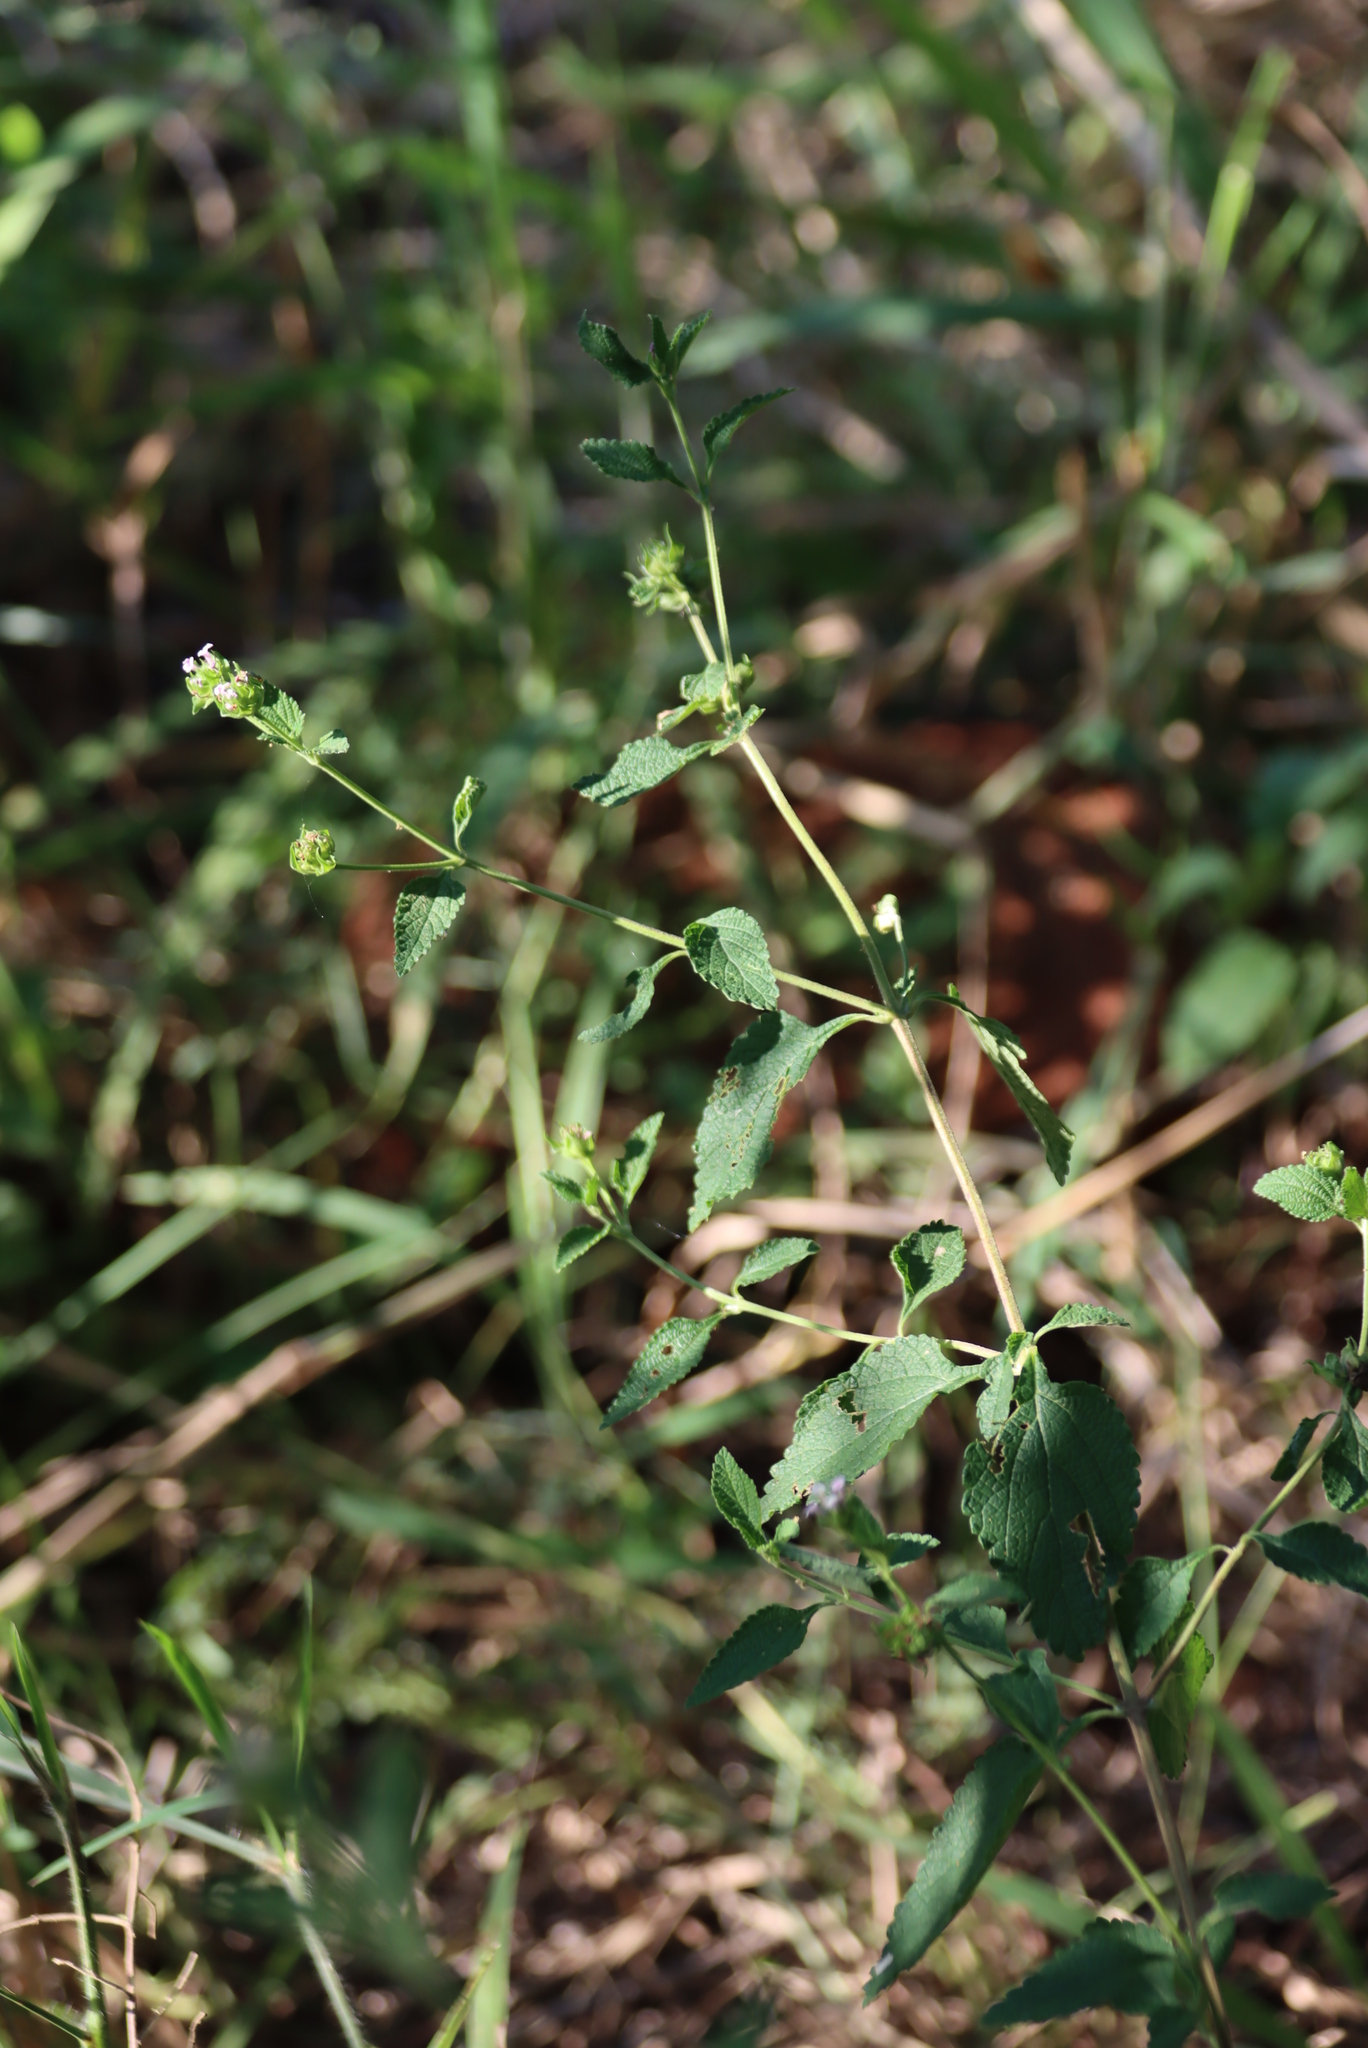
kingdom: Plantae
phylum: Tracheophyta
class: Magnoliopsida
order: Lamiales
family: Verbenaceae
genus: Lantana
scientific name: Lantana rugosa
